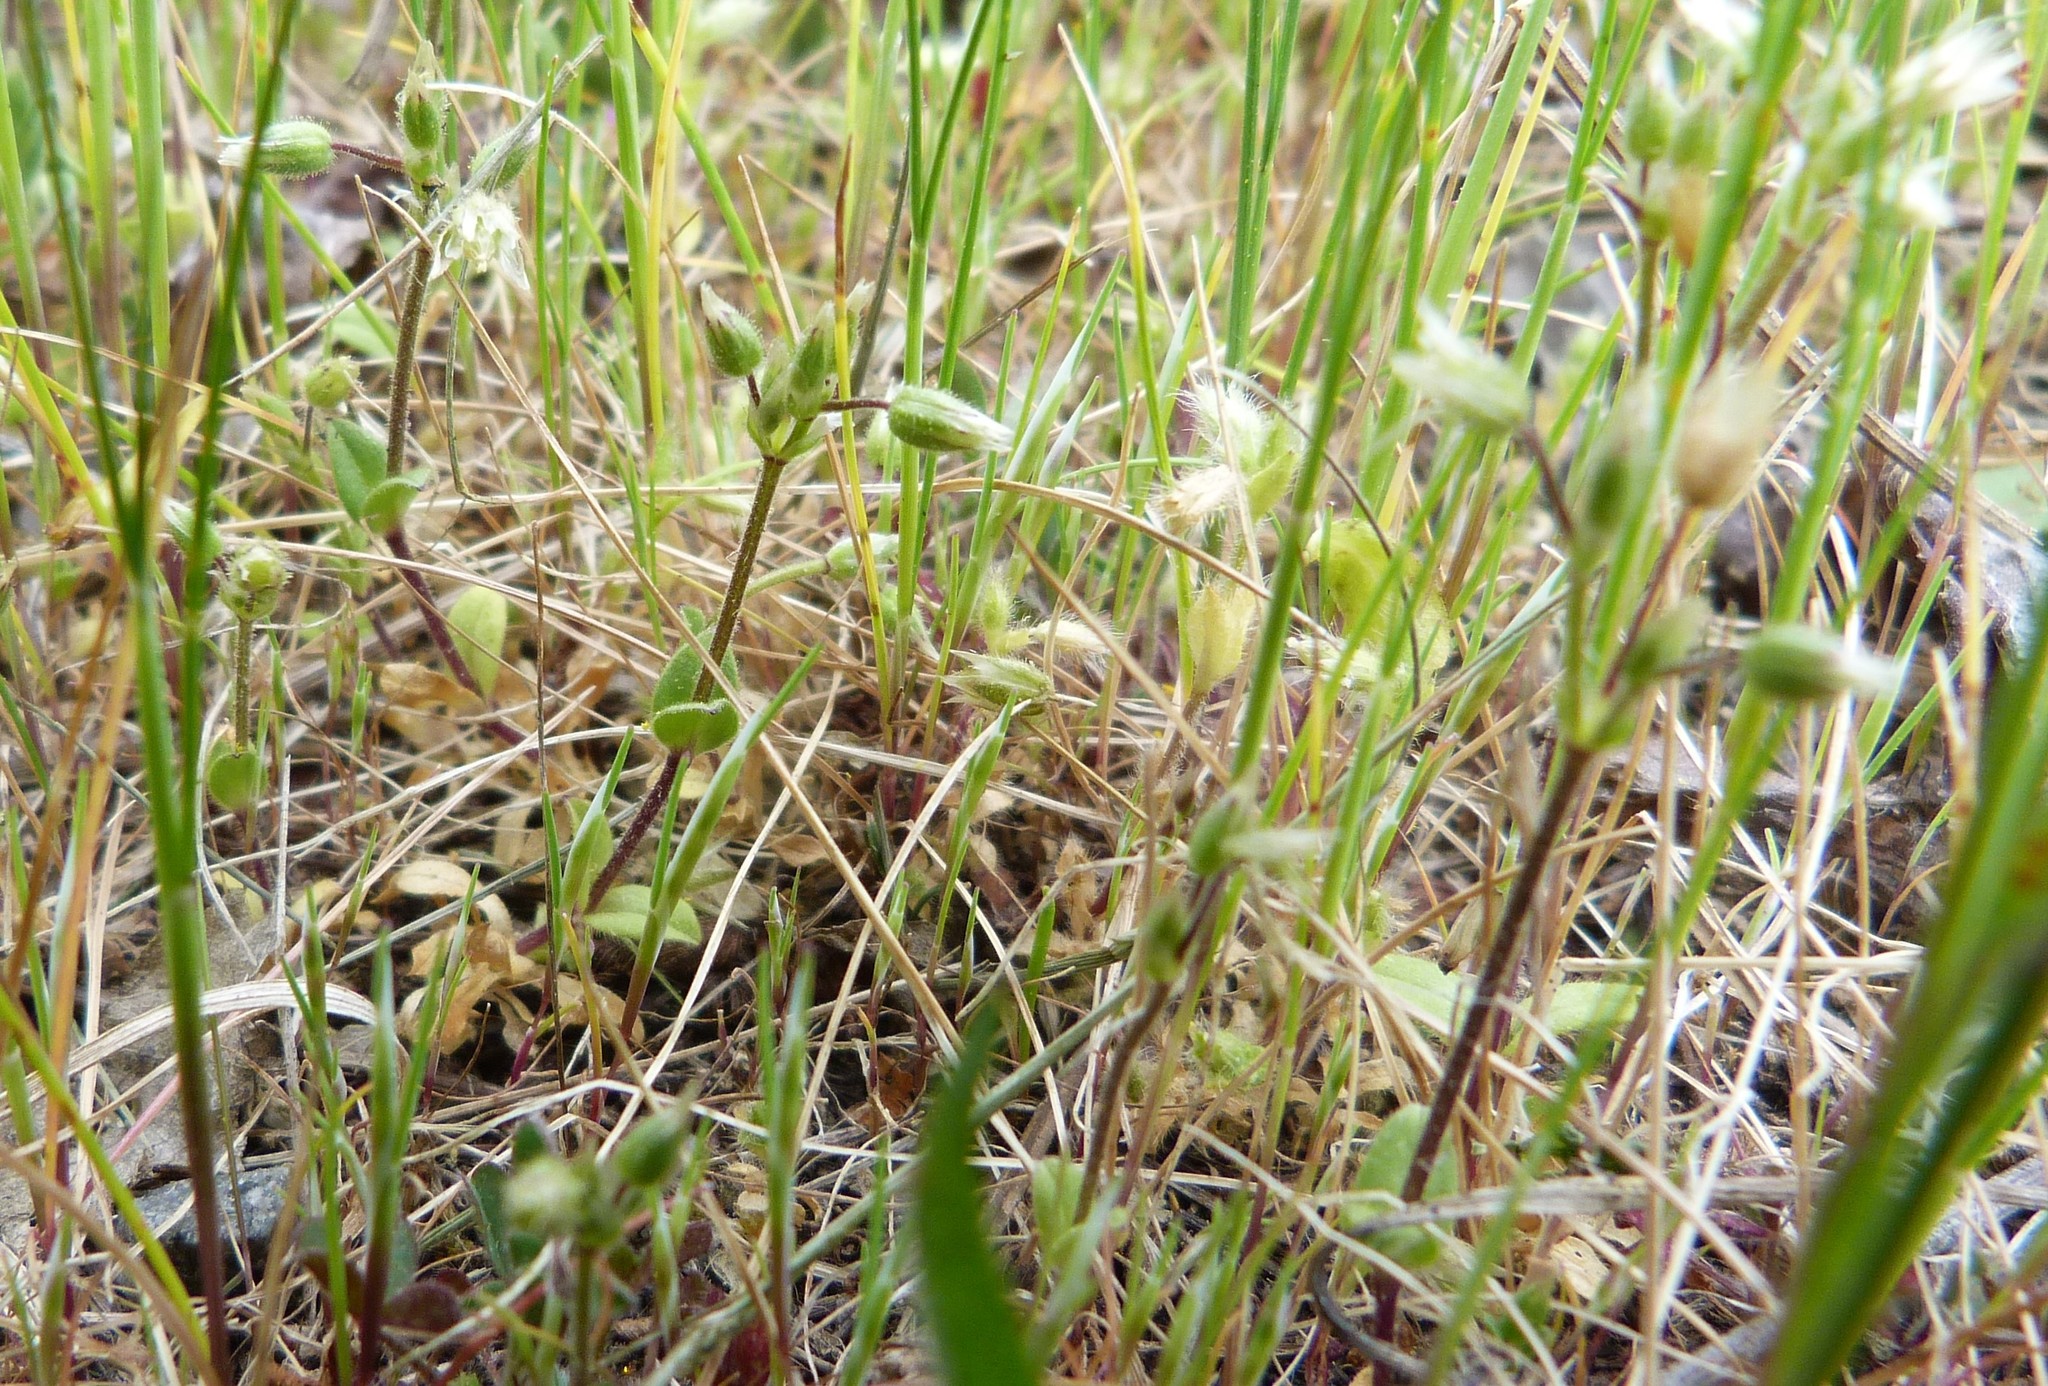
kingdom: Plantae
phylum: Tracheophyta
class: Magnoliopsida
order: Caryophyllales
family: Caryophyllaceae
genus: Cerastium
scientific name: Cerastium arvense
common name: Field mouse-ear
